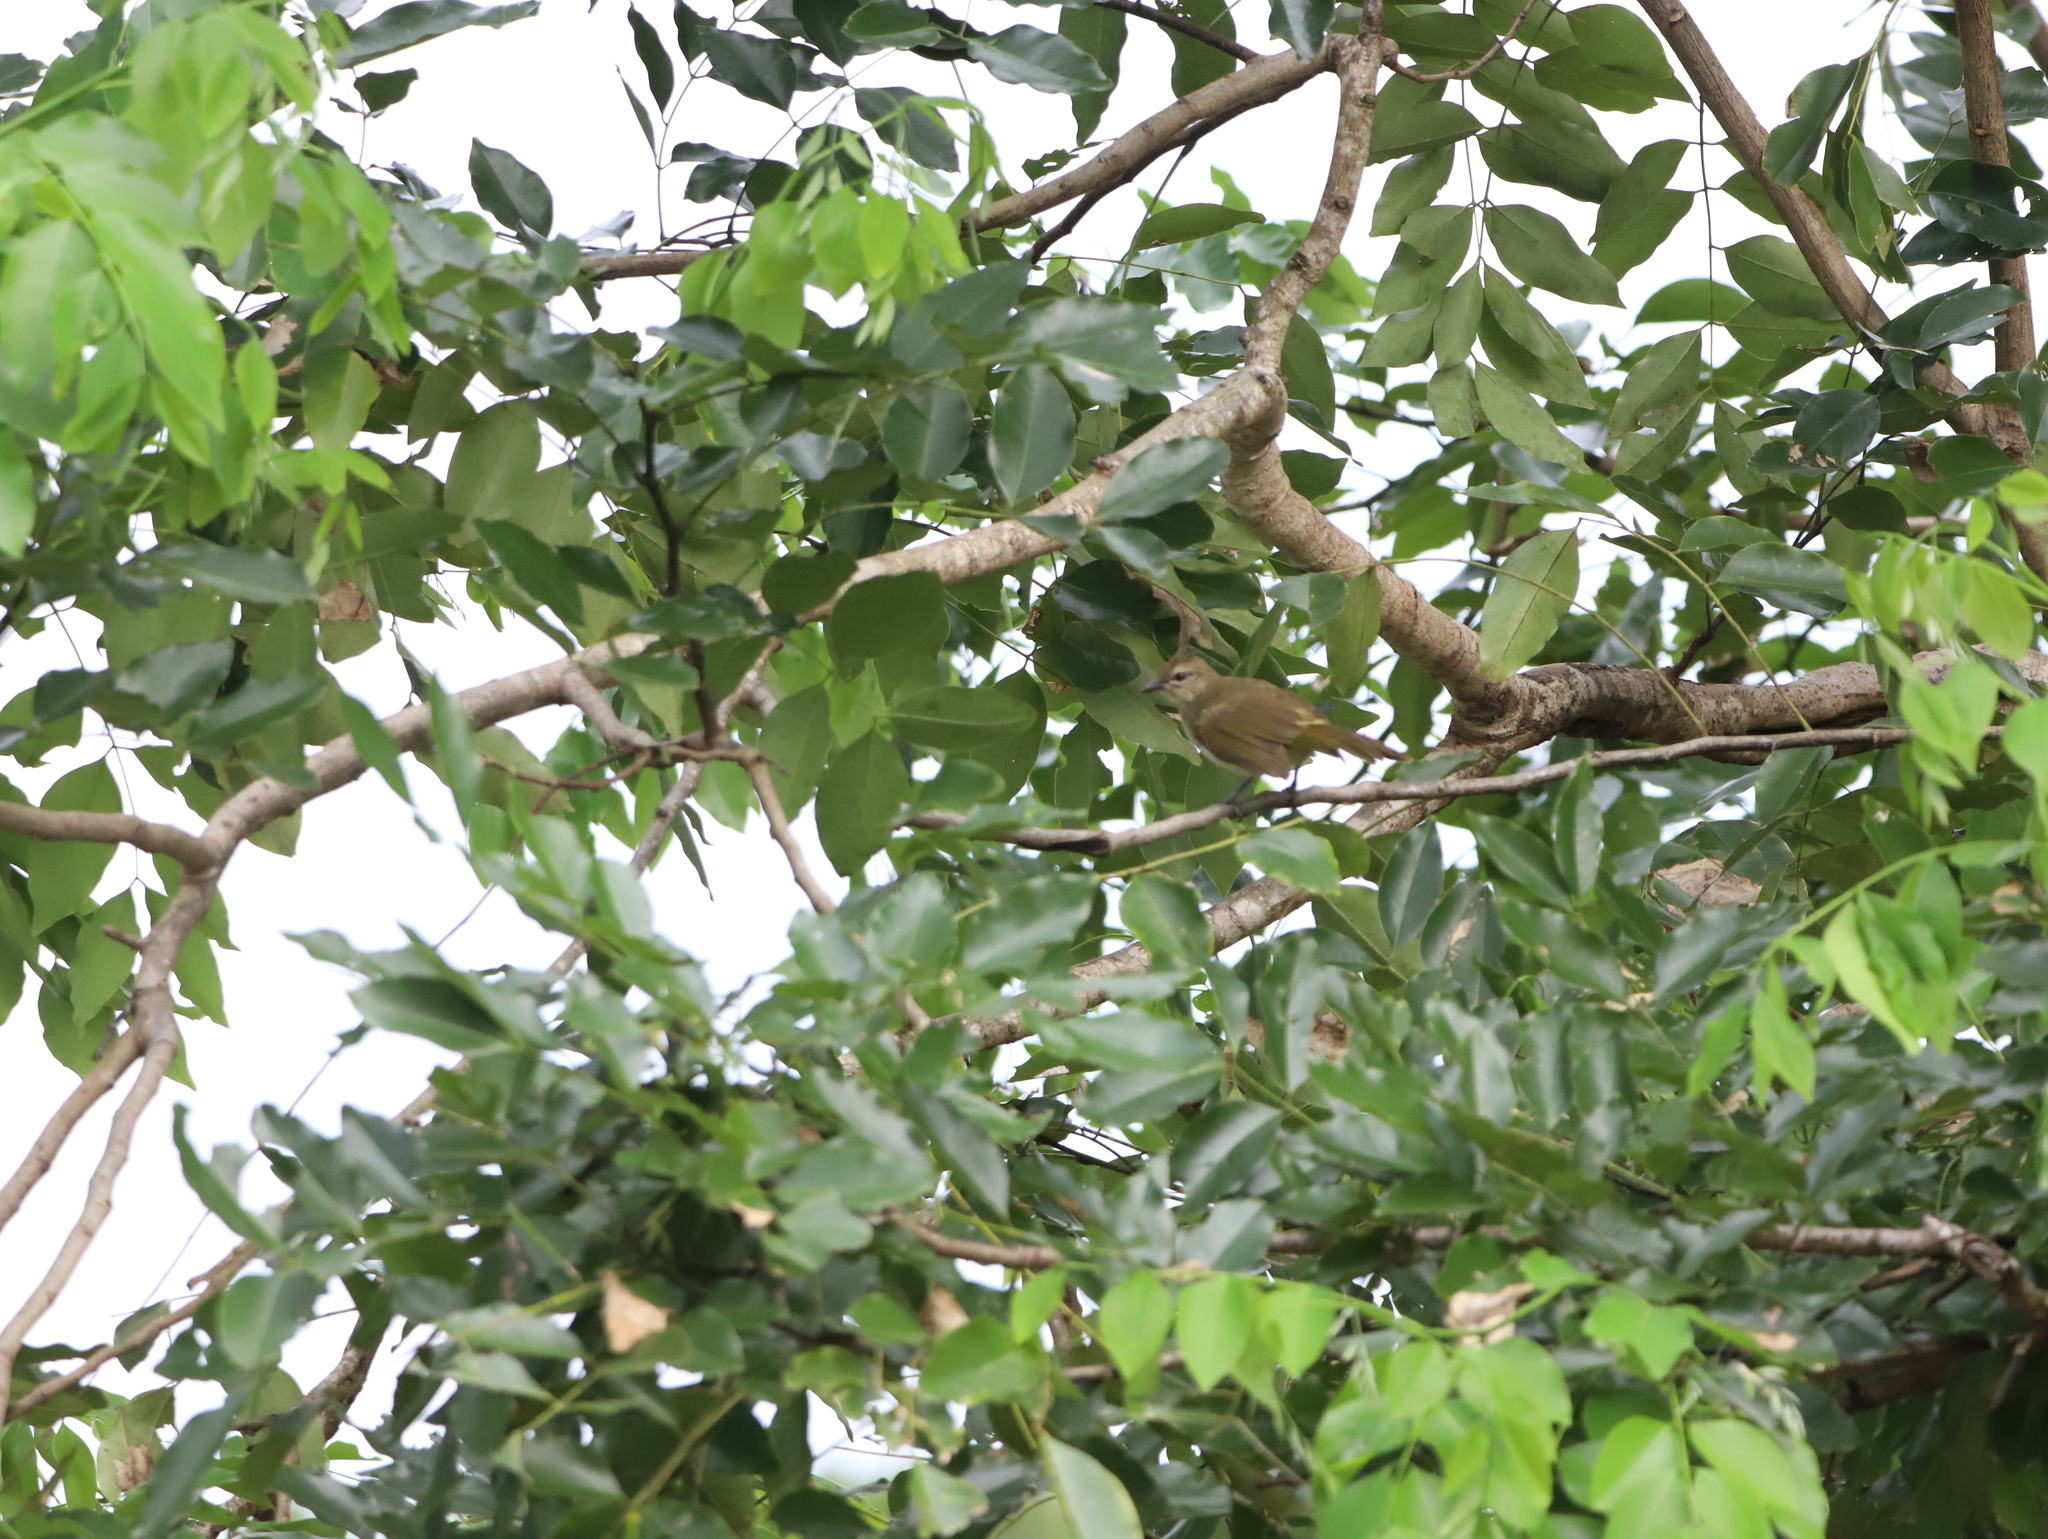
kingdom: Animalia
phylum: Chordata
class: Aves
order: Passeriformes
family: Pycnonotidae
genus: Pycnonotus
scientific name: Pycnonotus luteolus
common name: White-browed bulbul
